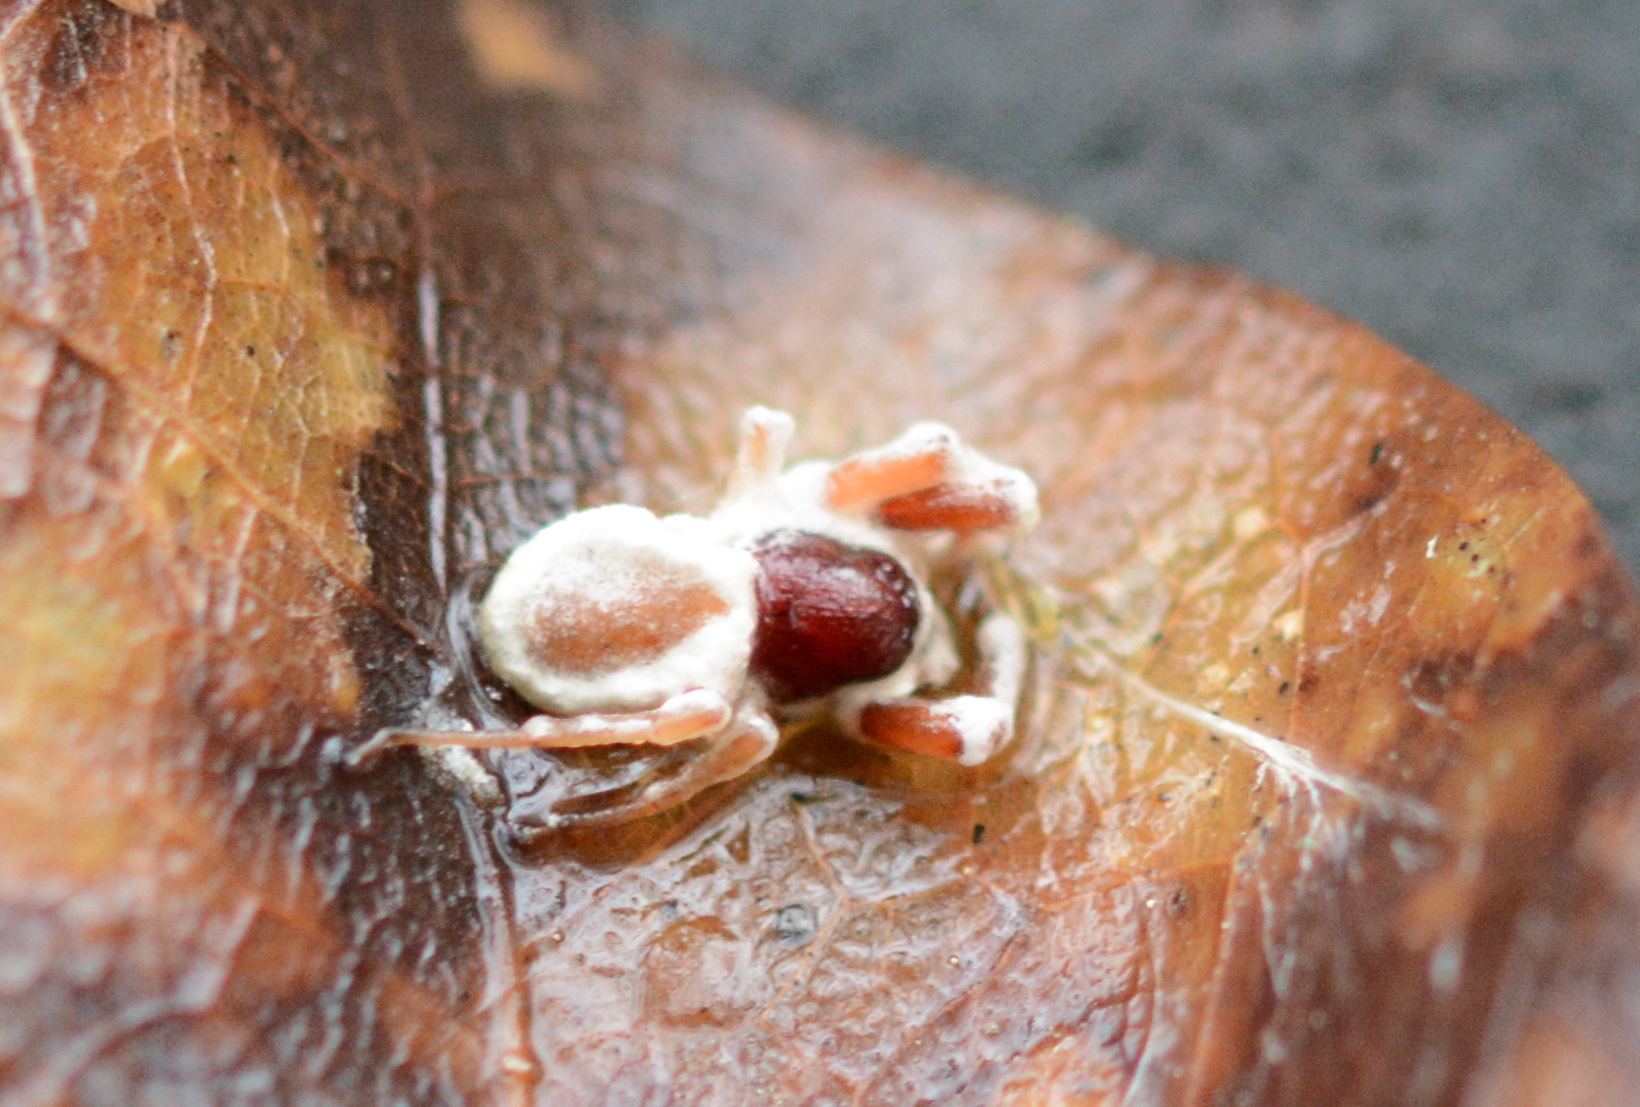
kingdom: Fungi
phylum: Ascomycota
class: Sordariomycetes
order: Hypocreales
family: Ophiocordycipitaceae
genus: Purpureocillium
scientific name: Purpureocillium atypicola
